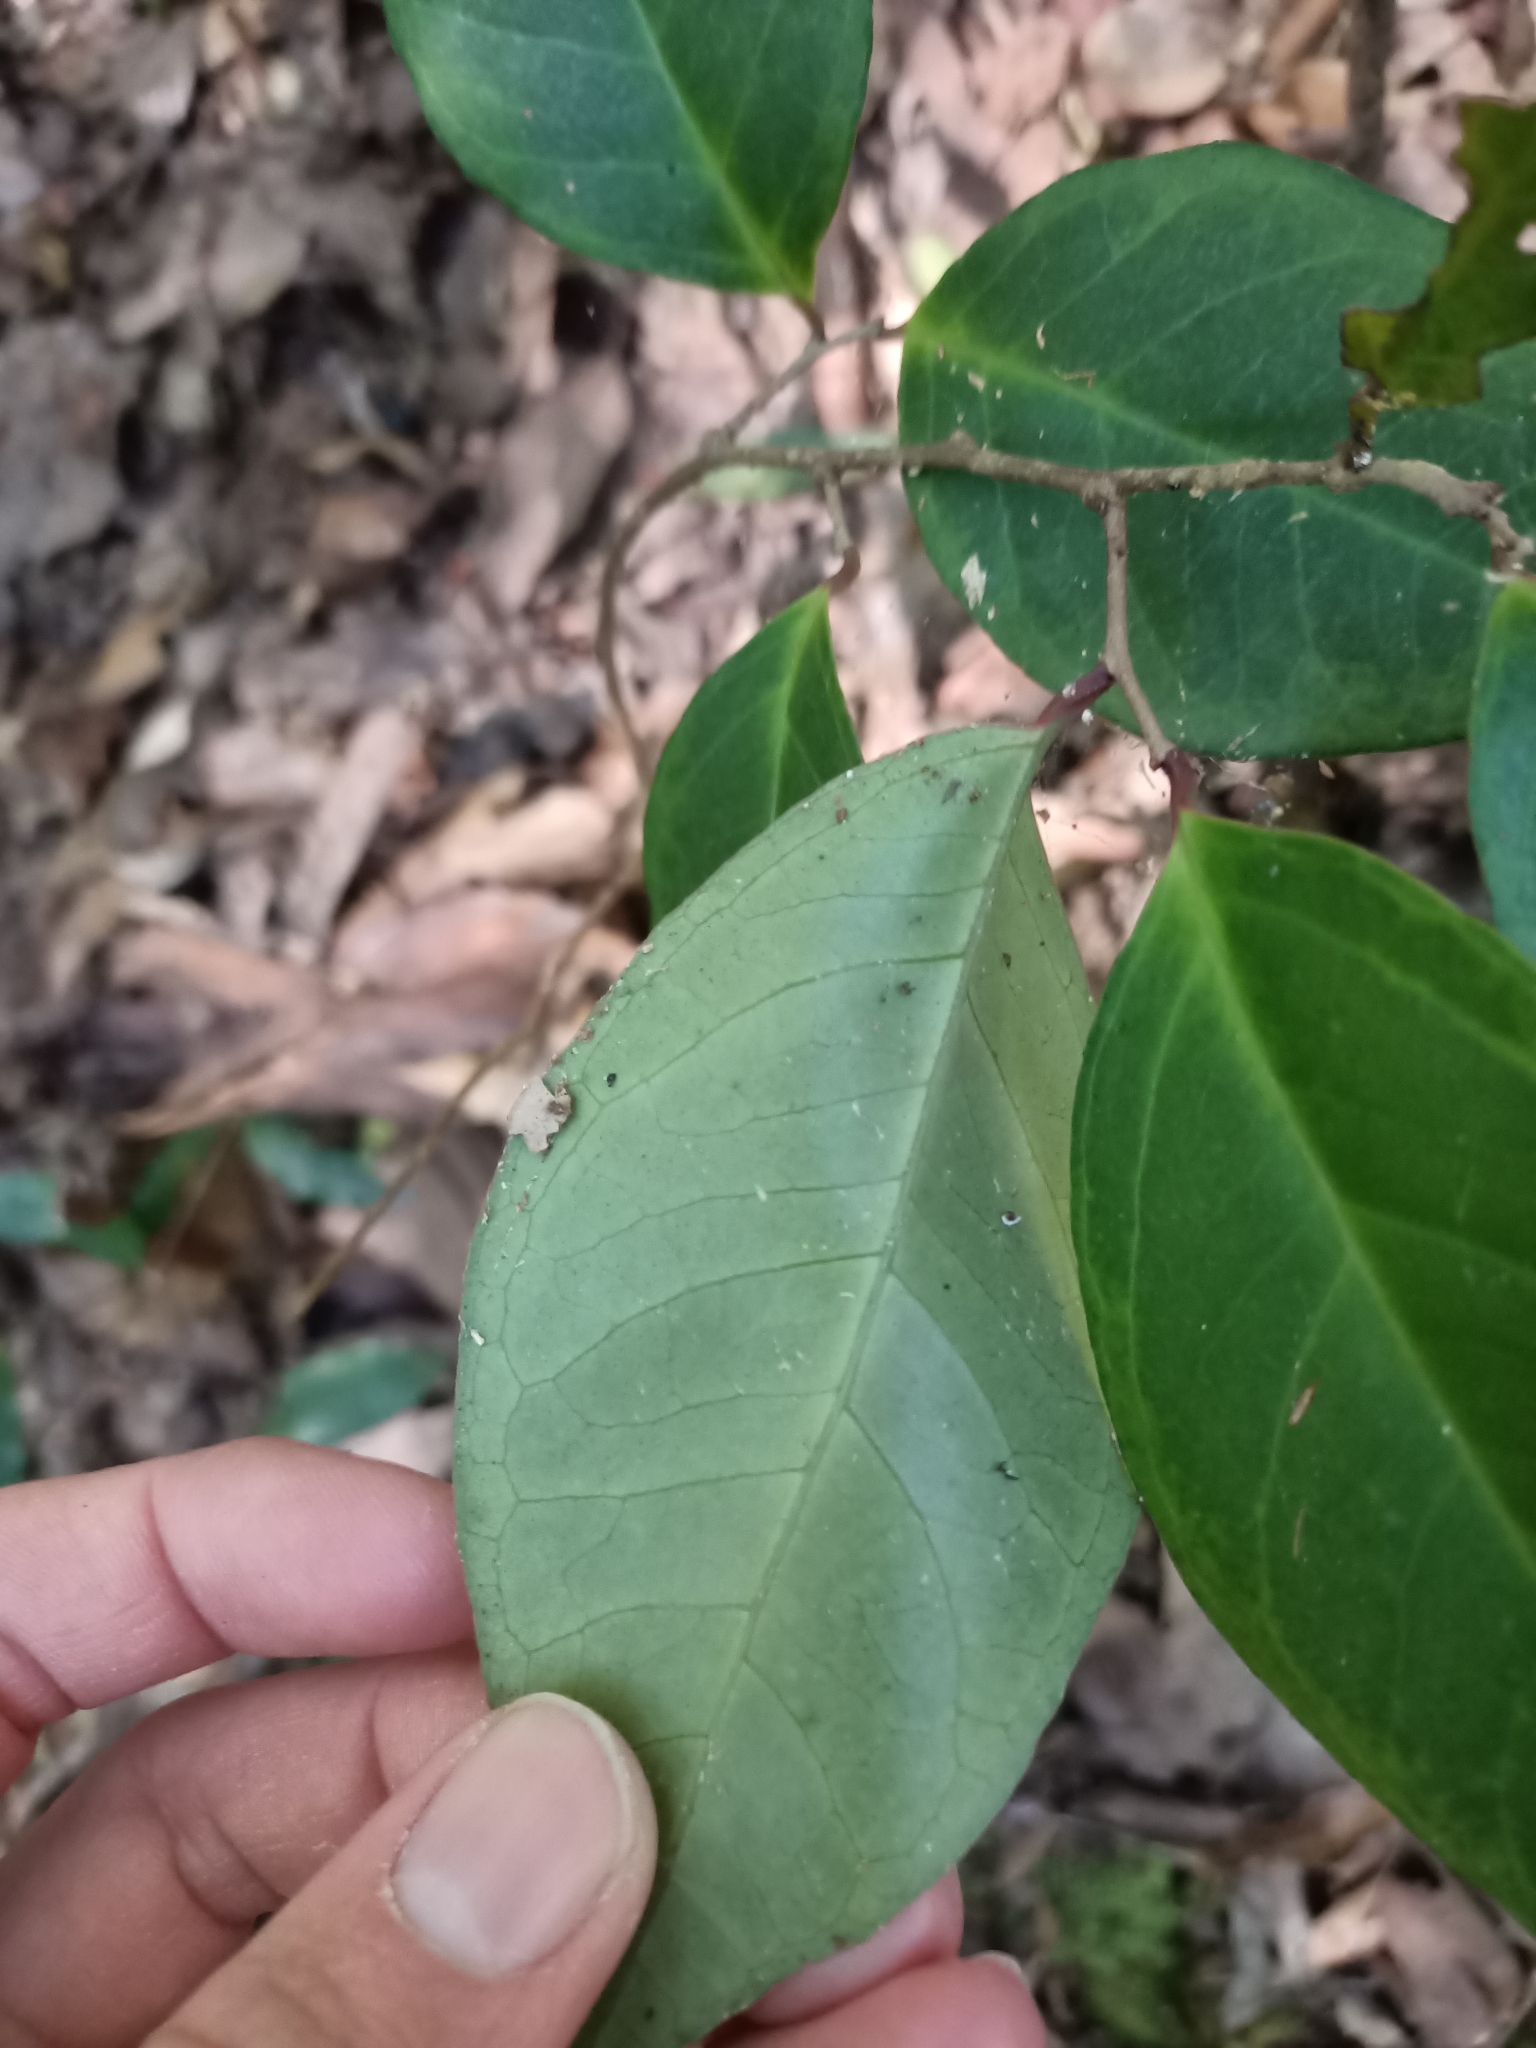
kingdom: Plantae
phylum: Tracheophyta
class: Magnoliopsida
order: Ericales
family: Primulaceae
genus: Embelia
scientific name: Embelia australiana
